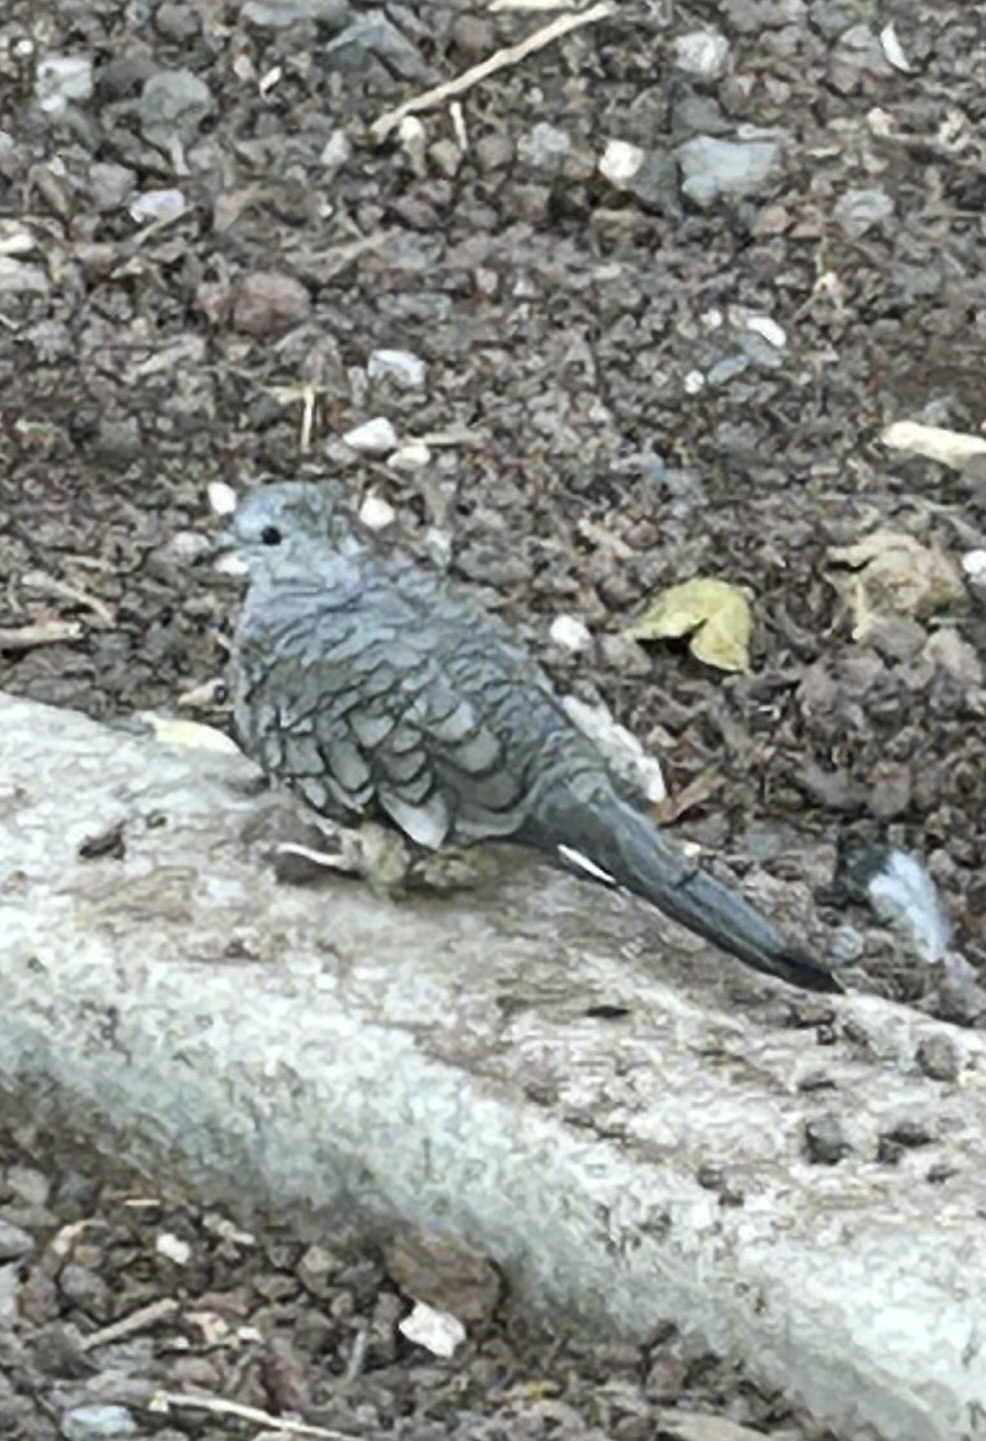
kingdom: Animalia
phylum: Chordata
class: Aves
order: Columbiformes
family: Columbidae
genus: Columbina
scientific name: Columbina inca
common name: Inca dove
